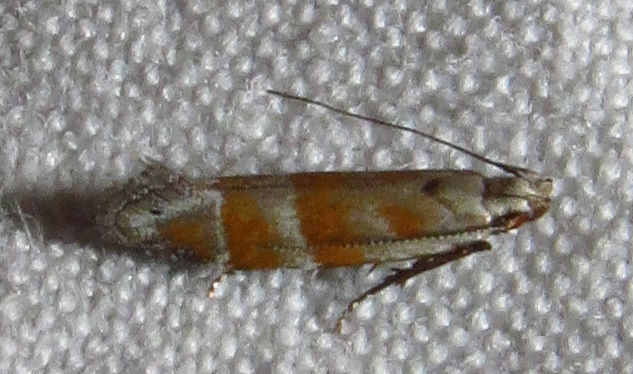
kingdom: Animalia
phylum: Arthropoda
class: Insecta
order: Lepidoptera
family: Gelechiidae
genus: Battaristis
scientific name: Battaristis vittella
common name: Orange stripe-backed moth
